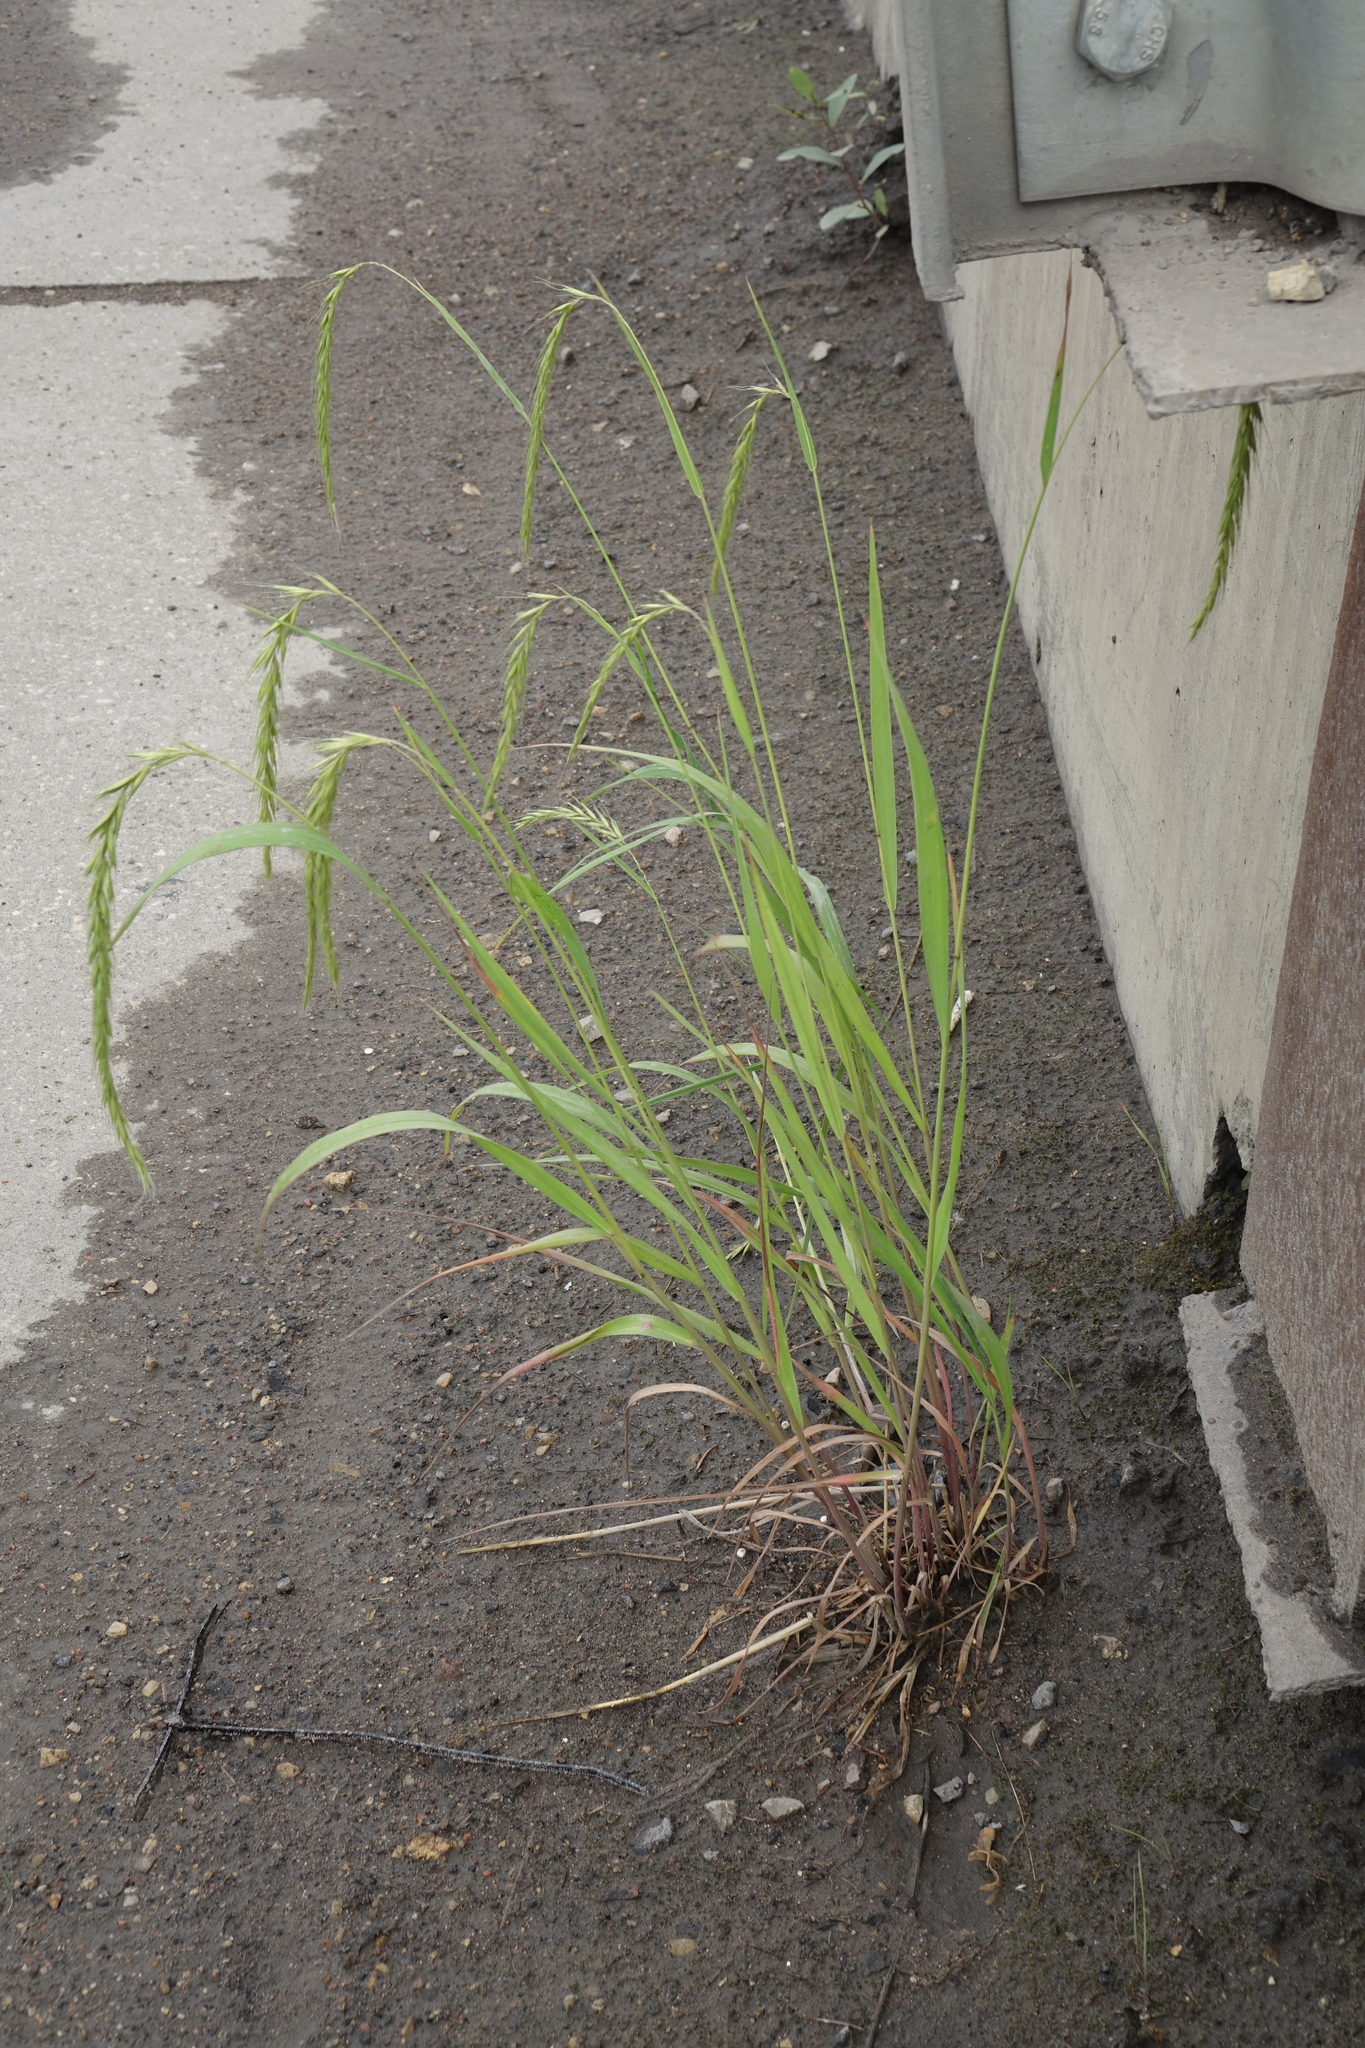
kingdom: Plantae
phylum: Tracheophyta
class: Liliopsida
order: Poales
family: Poaceae
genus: Elymus
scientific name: Elymus sibiricus
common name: Siberian wildrye
